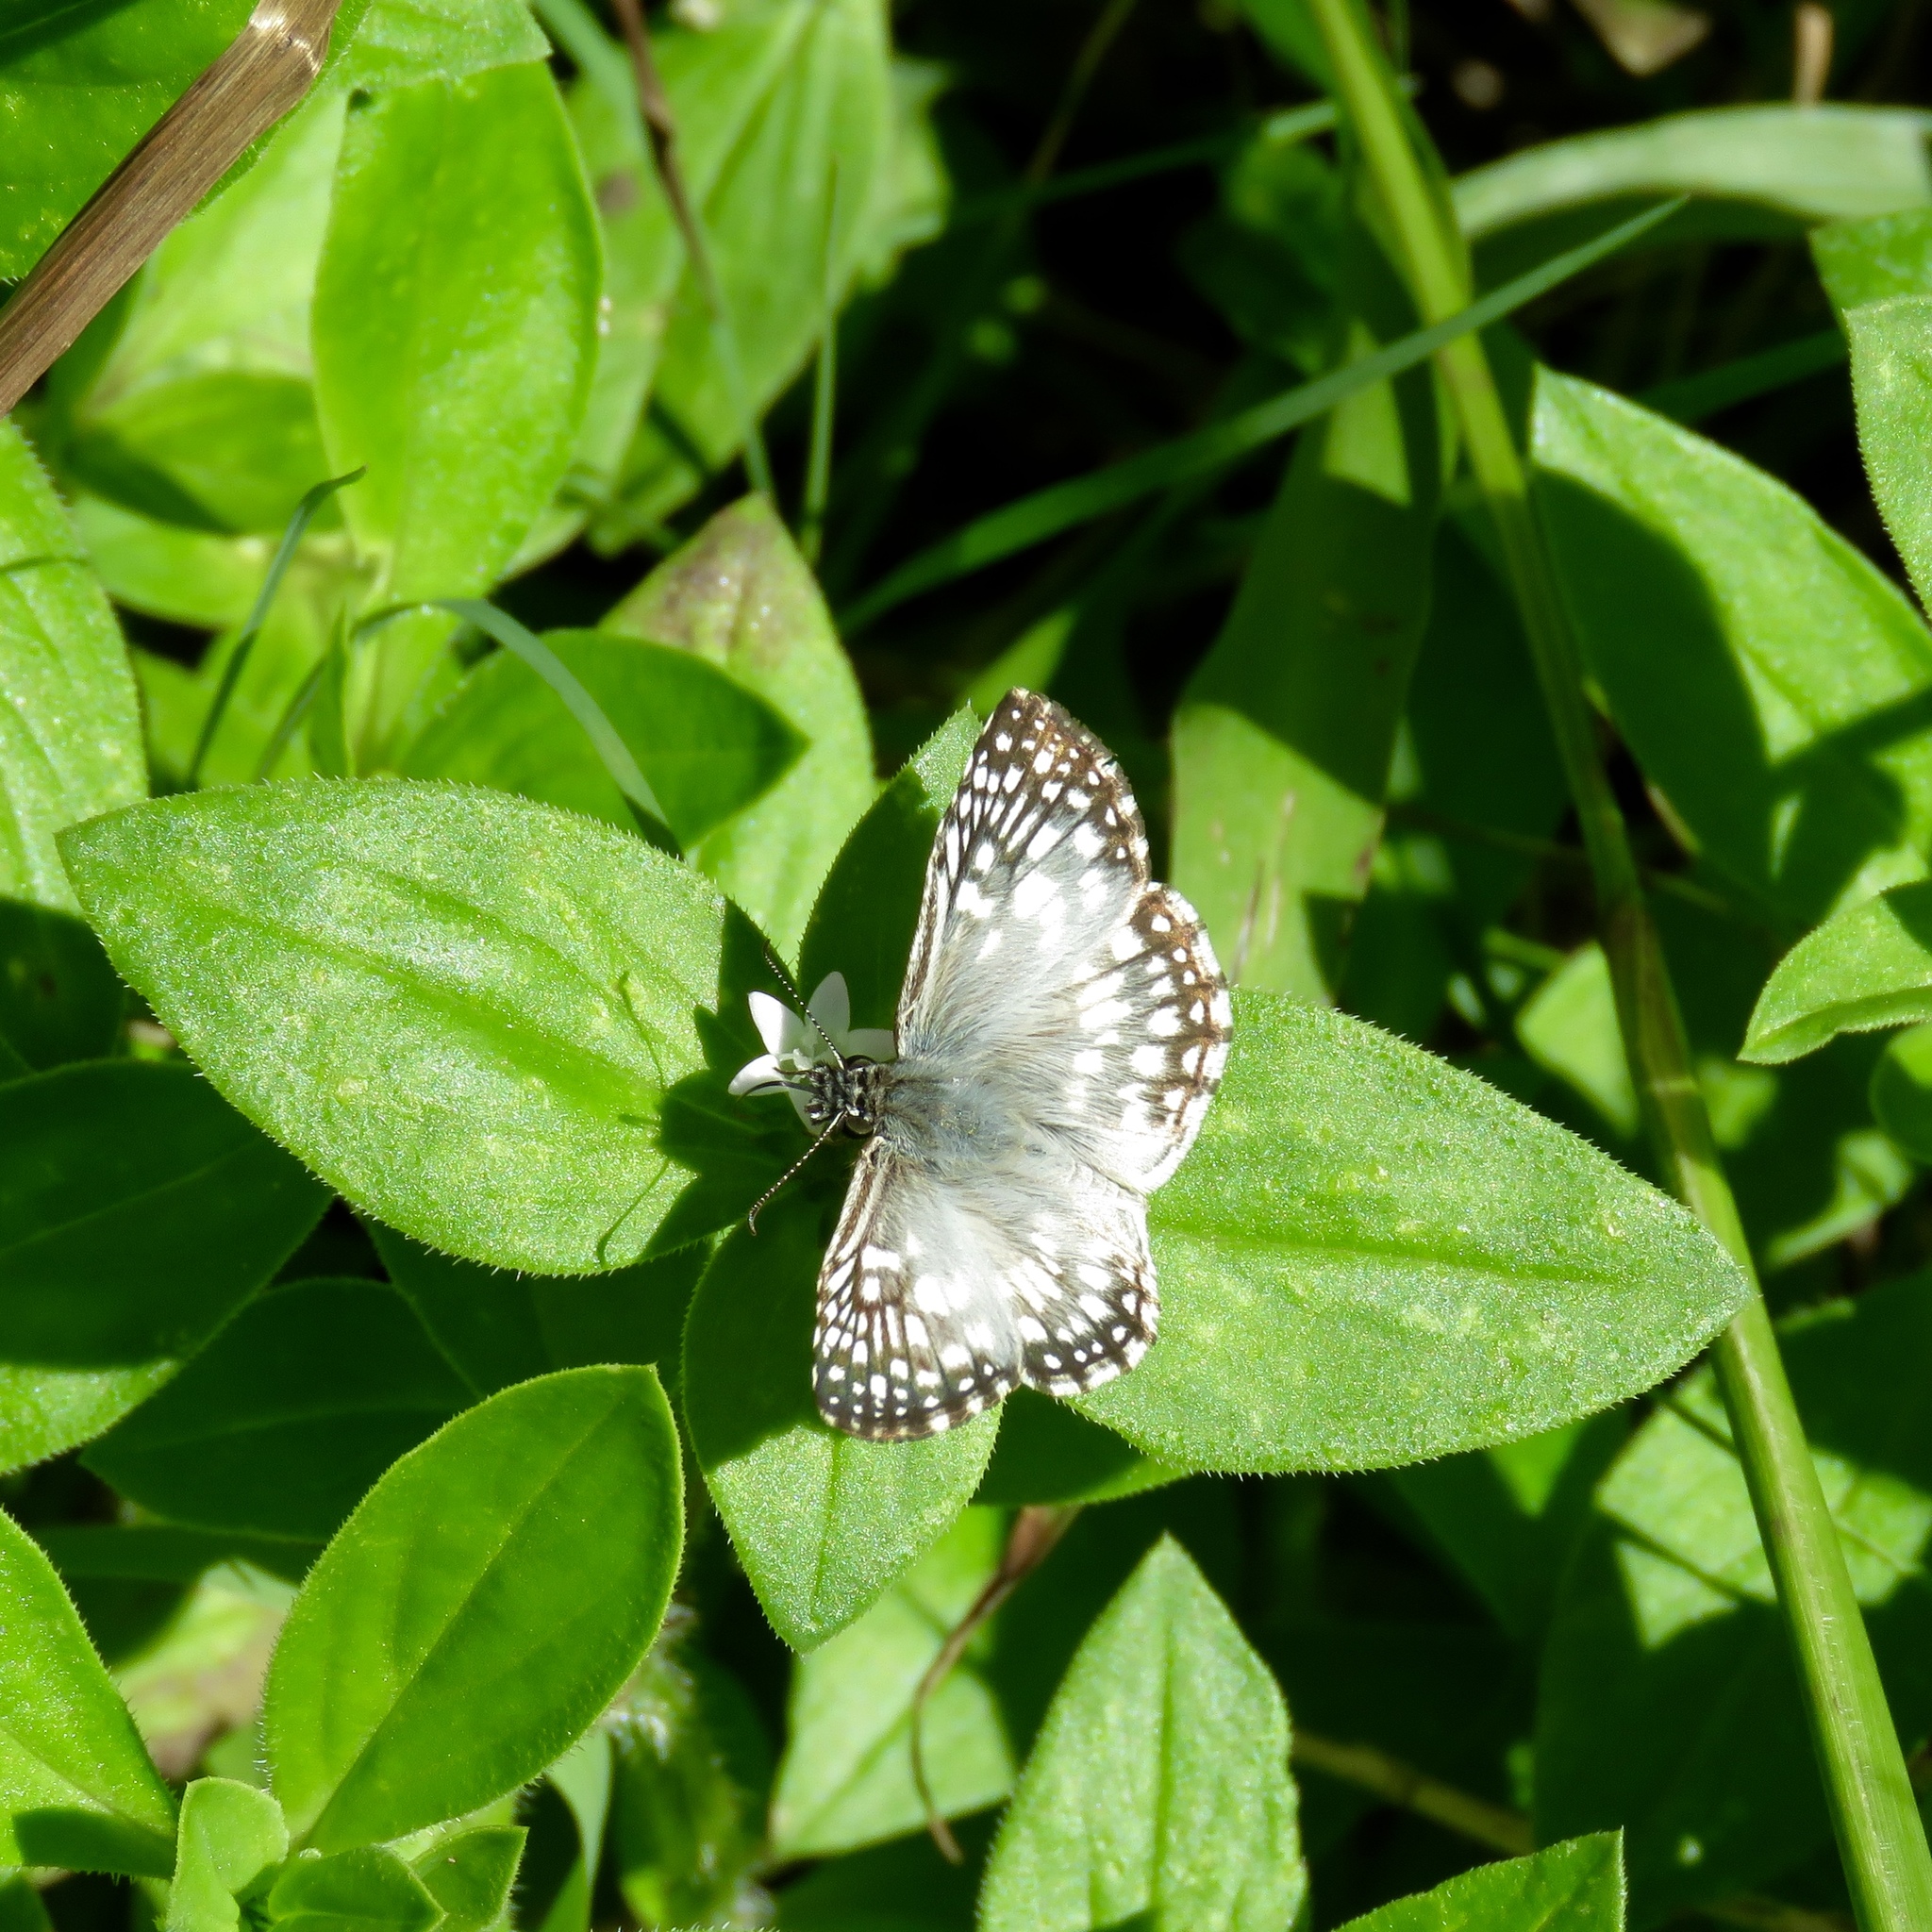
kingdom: Animalia
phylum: Arthropoda
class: Insecta
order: Lepidoptera
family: Hesperiidae
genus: Pyrgus
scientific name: Pyrgus oileus
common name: Tropical checkered-skipper
